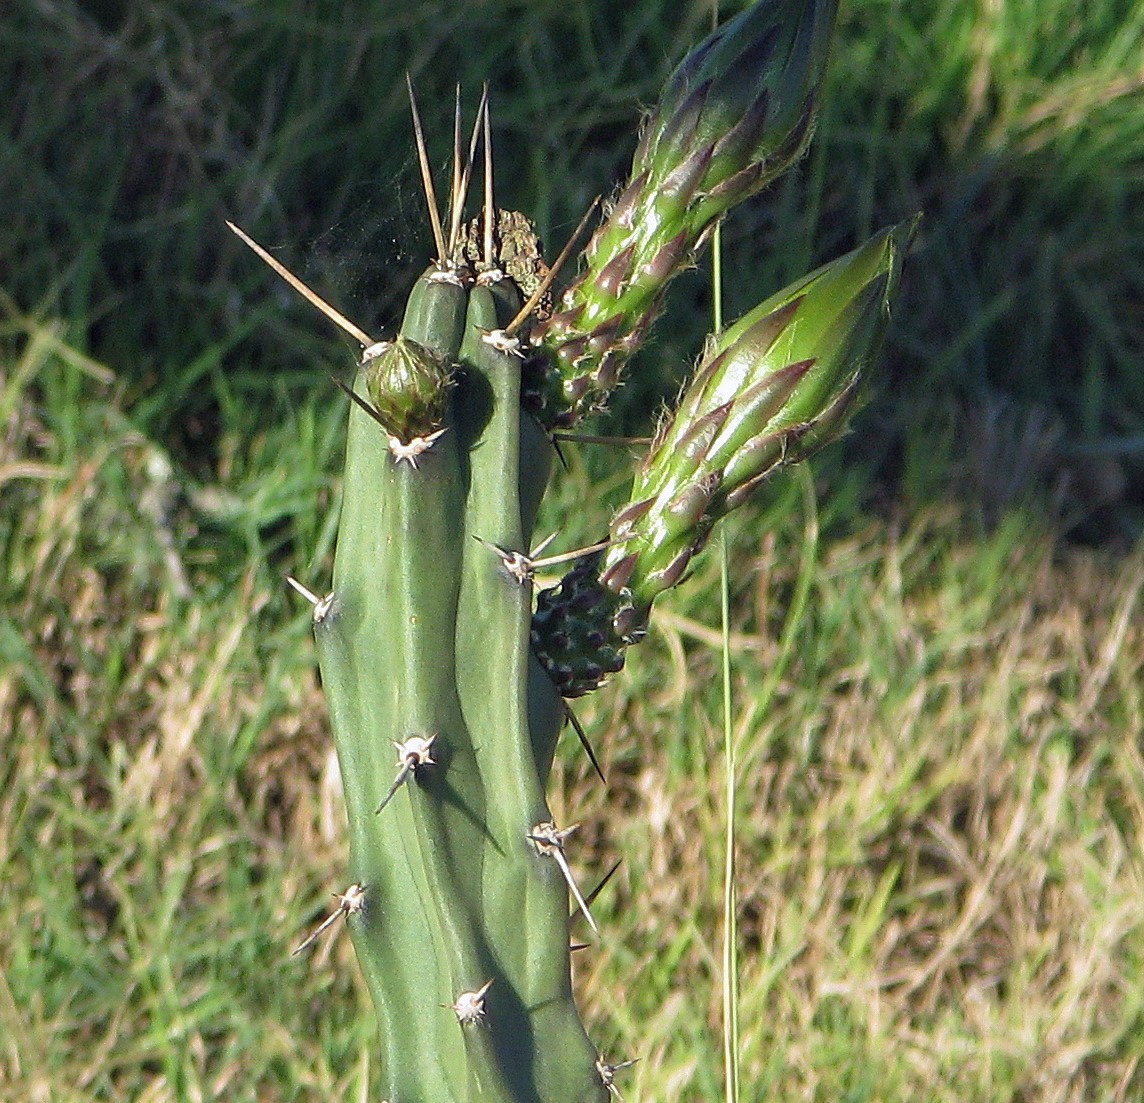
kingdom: Plantae
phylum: Tracheophyta
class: Magnoliopsida
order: Caryophyllales
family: Cactaceae
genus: Harrisia
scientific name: Harrisia pomanensis
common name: Midnight-lady
